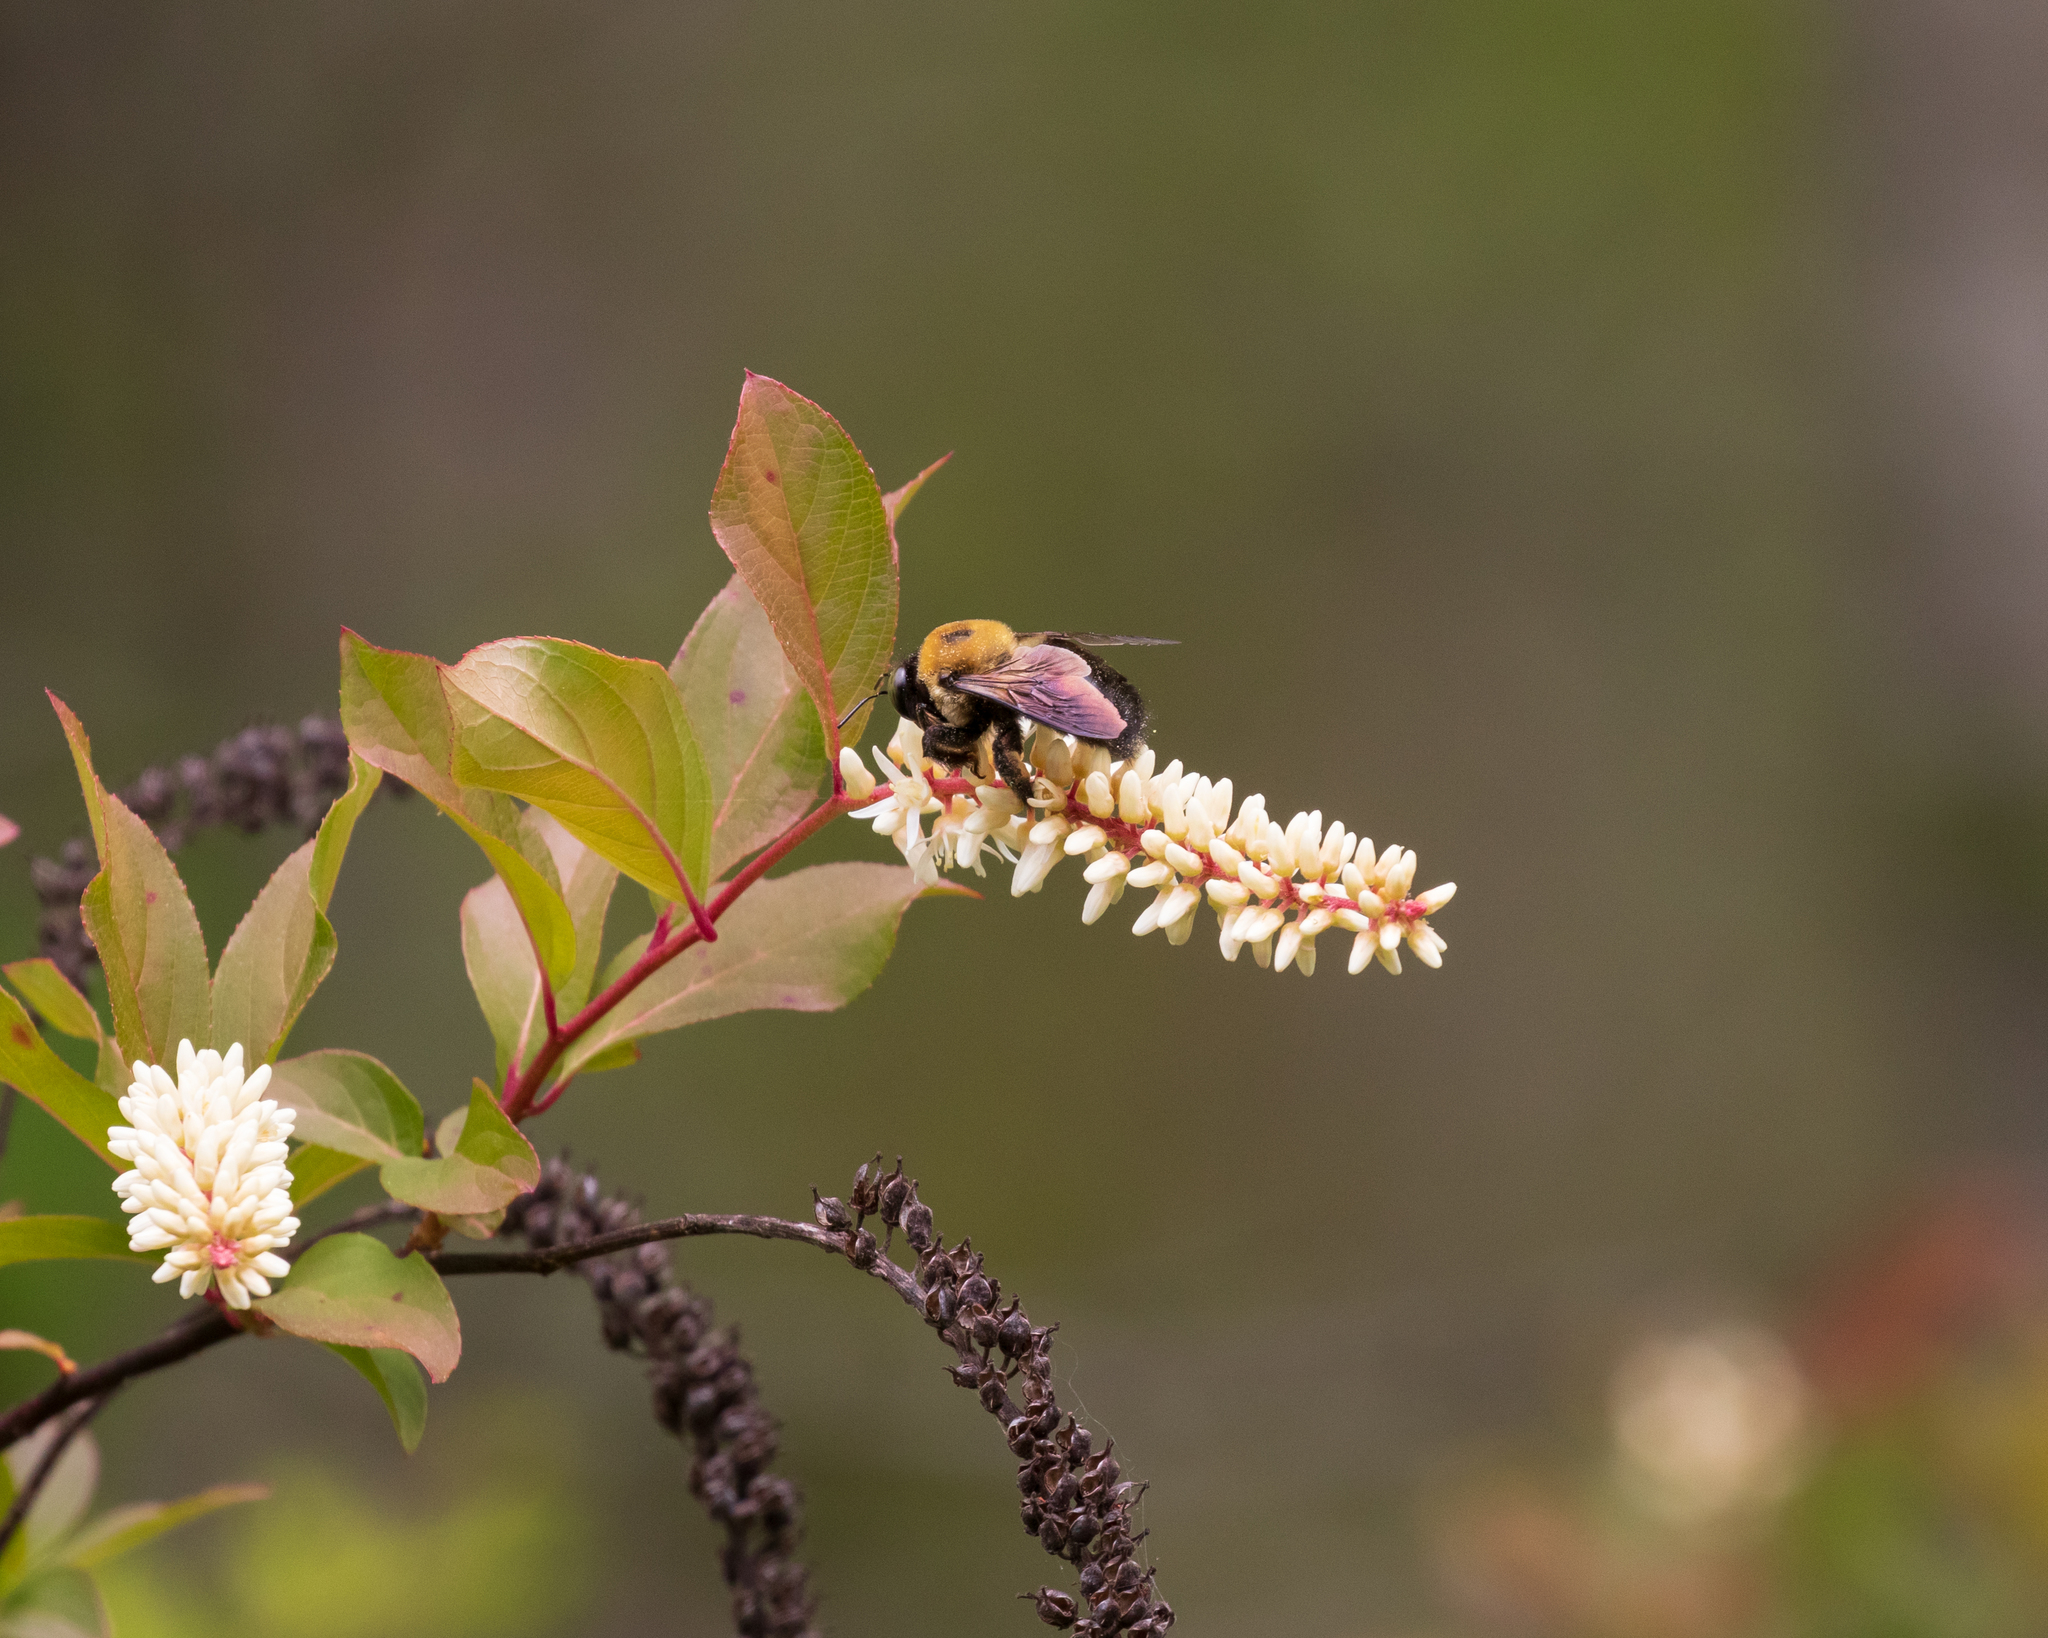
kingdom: Animalia
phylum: Arthropoda
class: Insecta
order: Hymenoptera
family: Apidae
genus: Xylocopa
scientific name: Xylocopa virginica
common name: Carpenter bee
